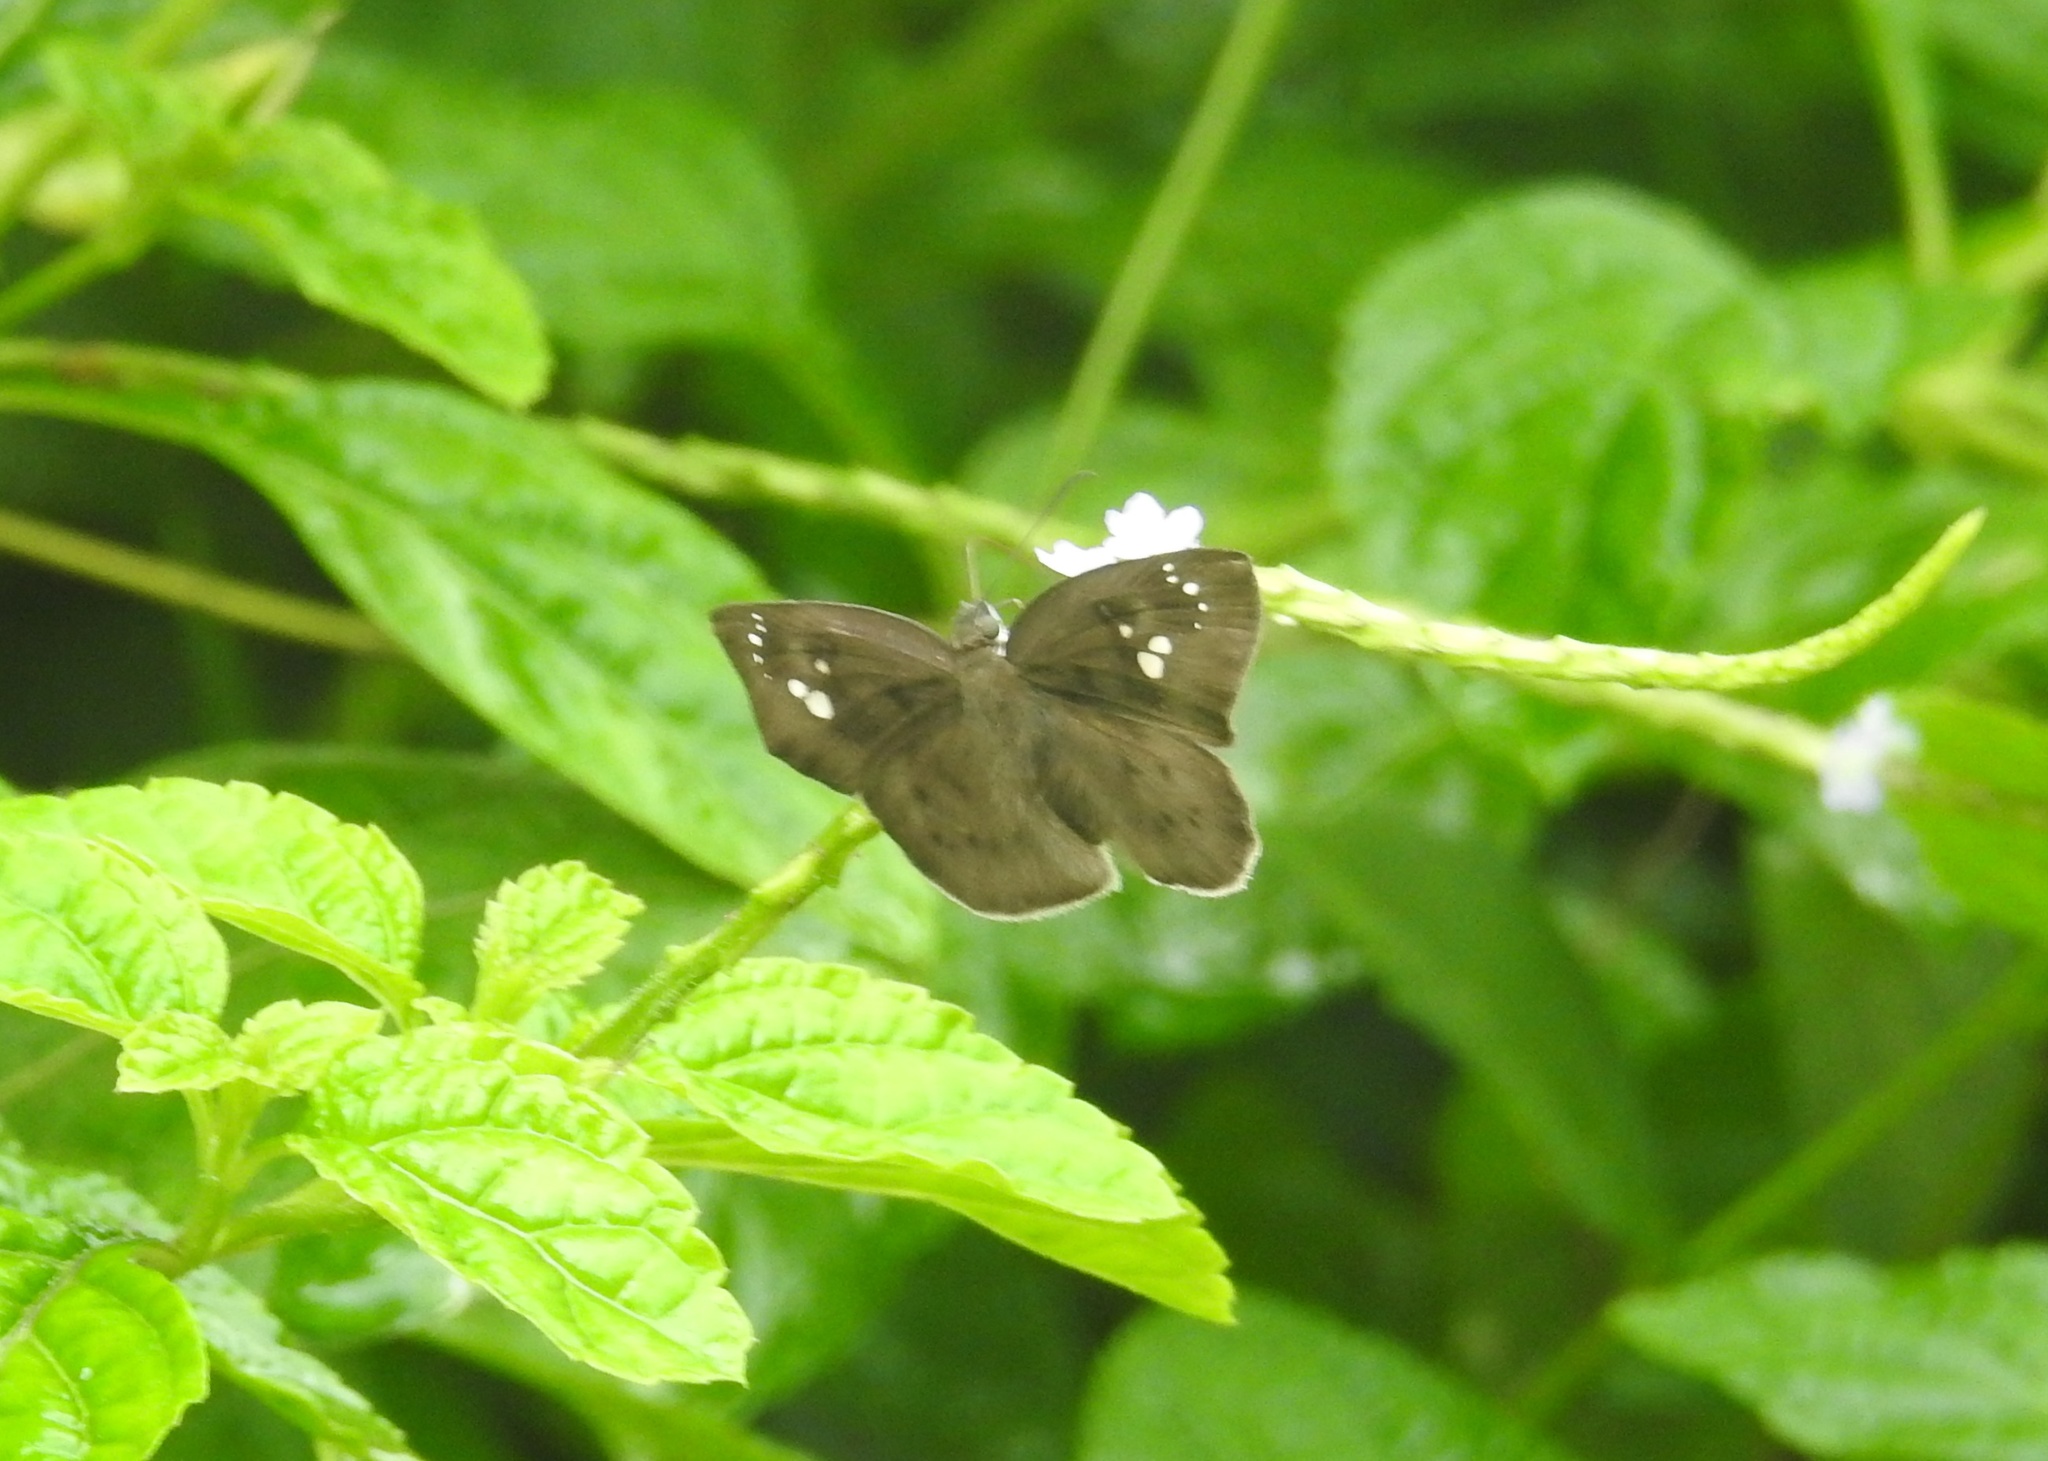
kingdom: Animalia
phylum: Arthropoda
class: Insecta
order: Lepidoptera
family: Hesperiidae
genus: Tagiades
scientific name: Tagiades japetus
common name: Pied flat
